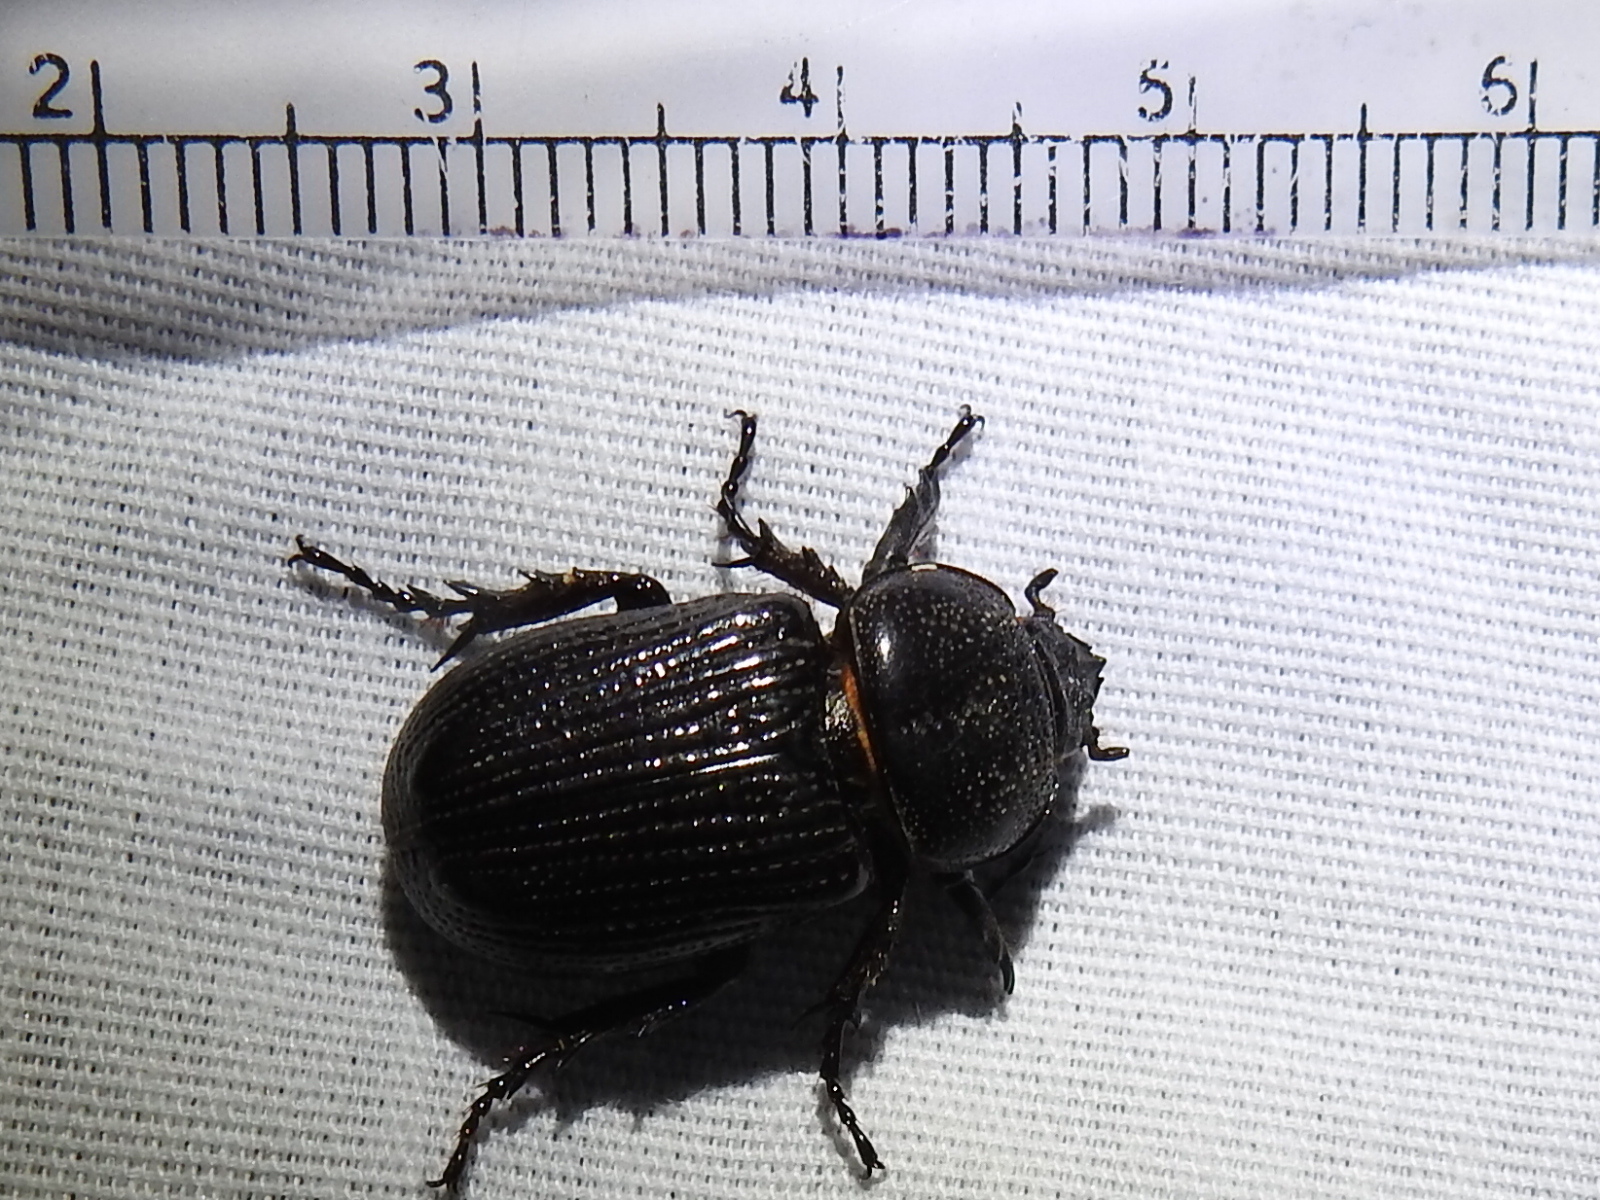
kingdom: Animalia
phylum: Arthropoda
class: Insecta
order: Coleoptera
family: Scarabaeidae
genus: Hemiphileurus
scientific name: Hemiphileurus illatus
